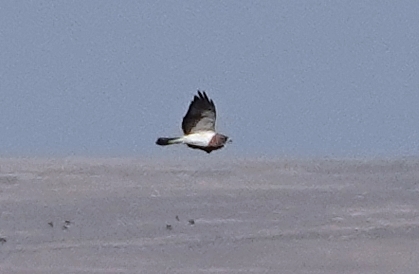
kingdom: Animalia
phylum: Chordata
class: Aves
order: Accipitriformes
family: Accipitridae
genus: Buteo
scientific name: Buteo swainsoni
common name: Swainson's hawk
